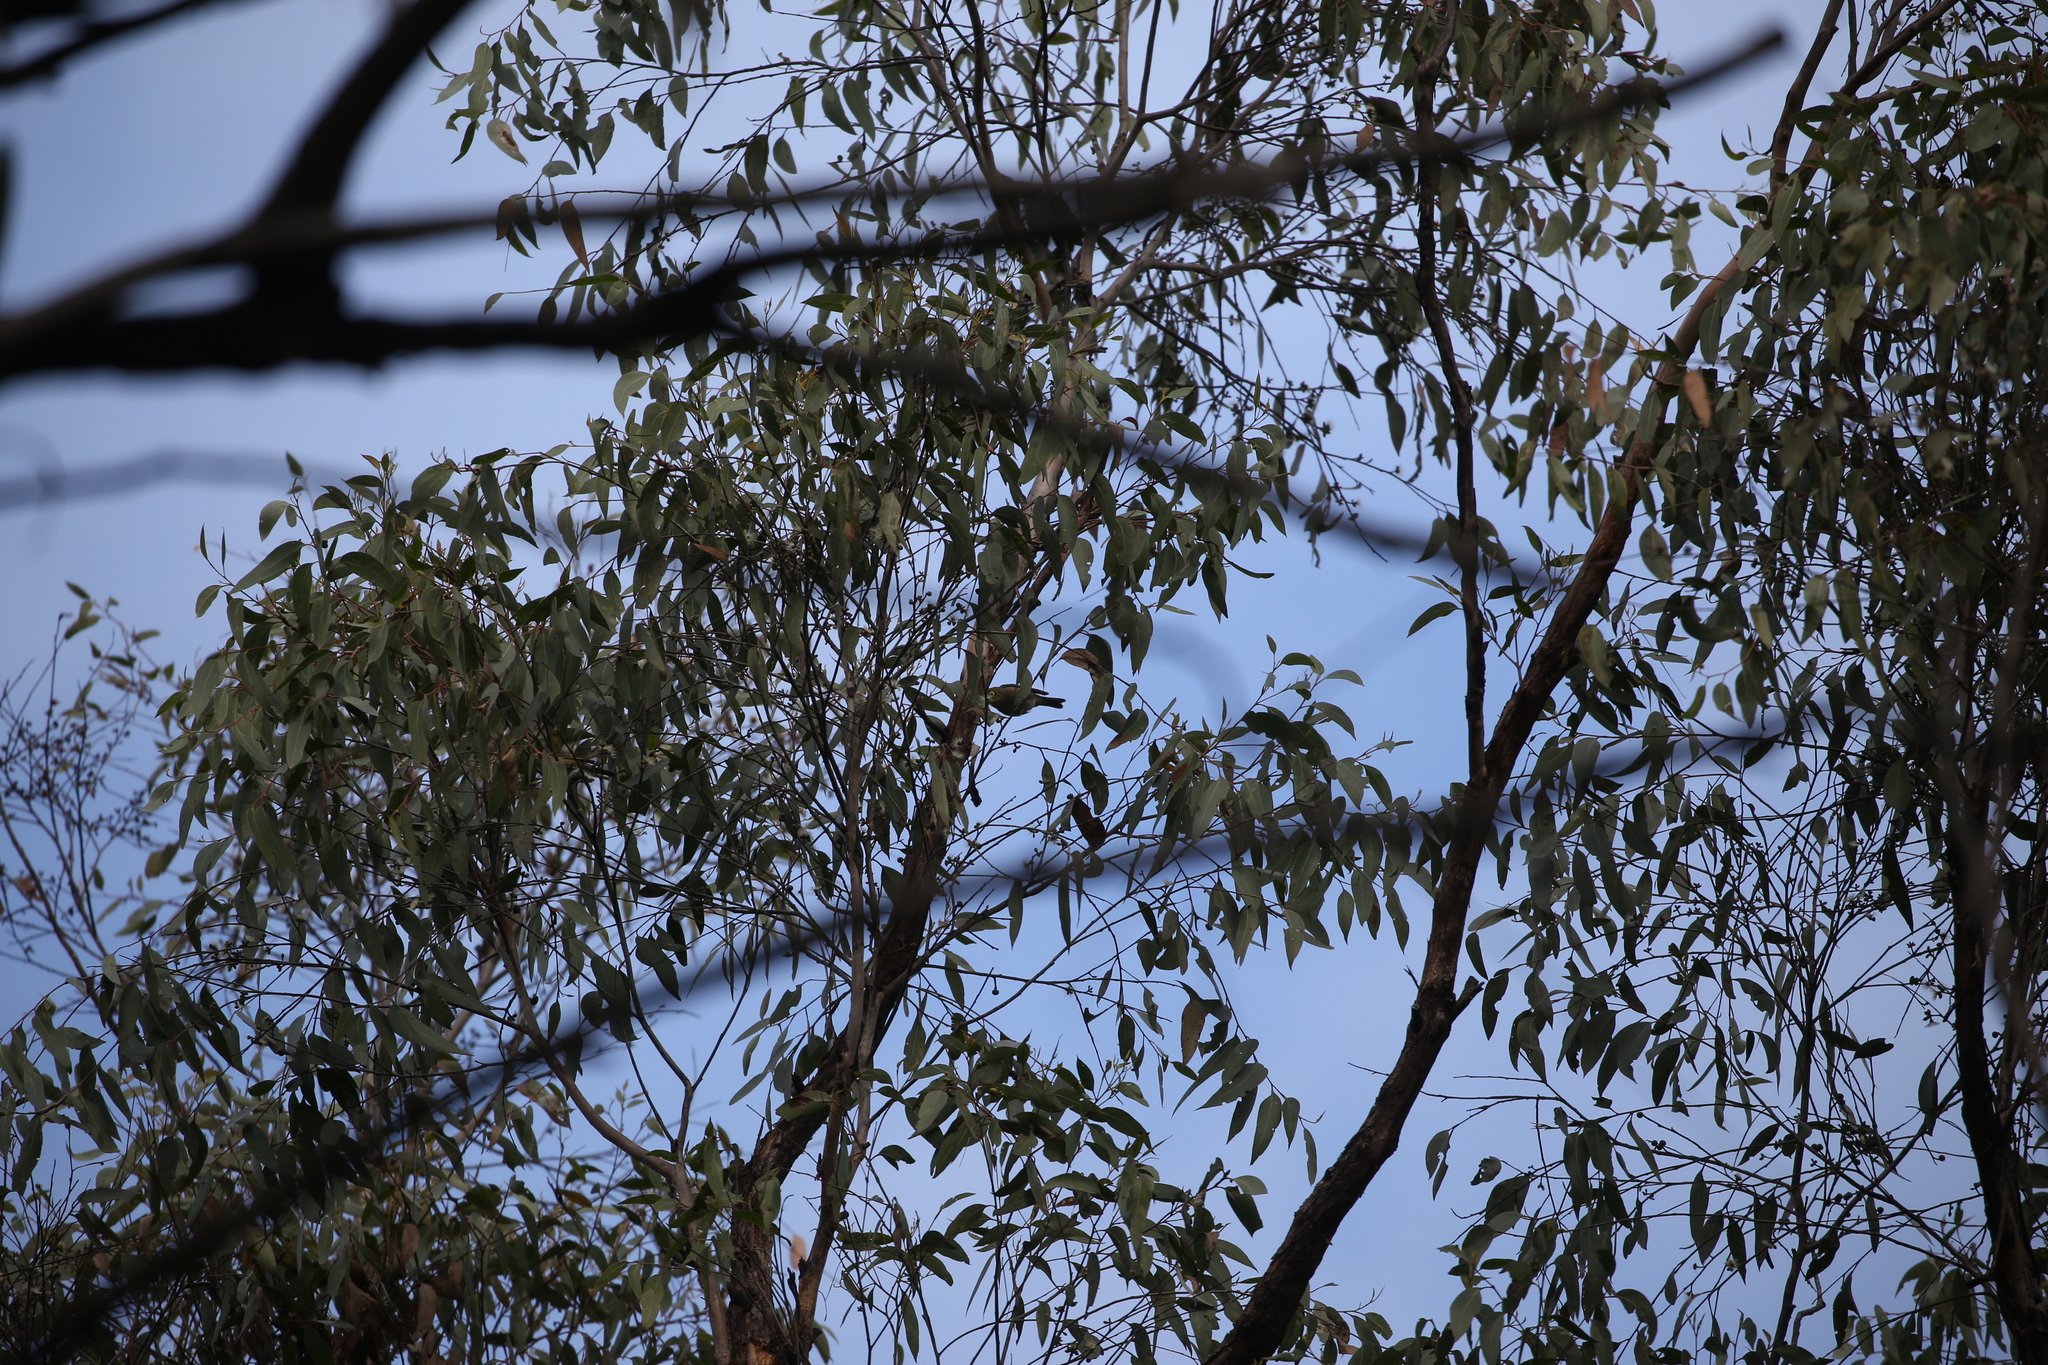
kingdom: Animalia
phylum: Chordata
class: Aves
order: Passeriformes
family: Zosteropidae
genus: Zosterops
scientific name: Zosterops lateralis
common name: Silvereye
